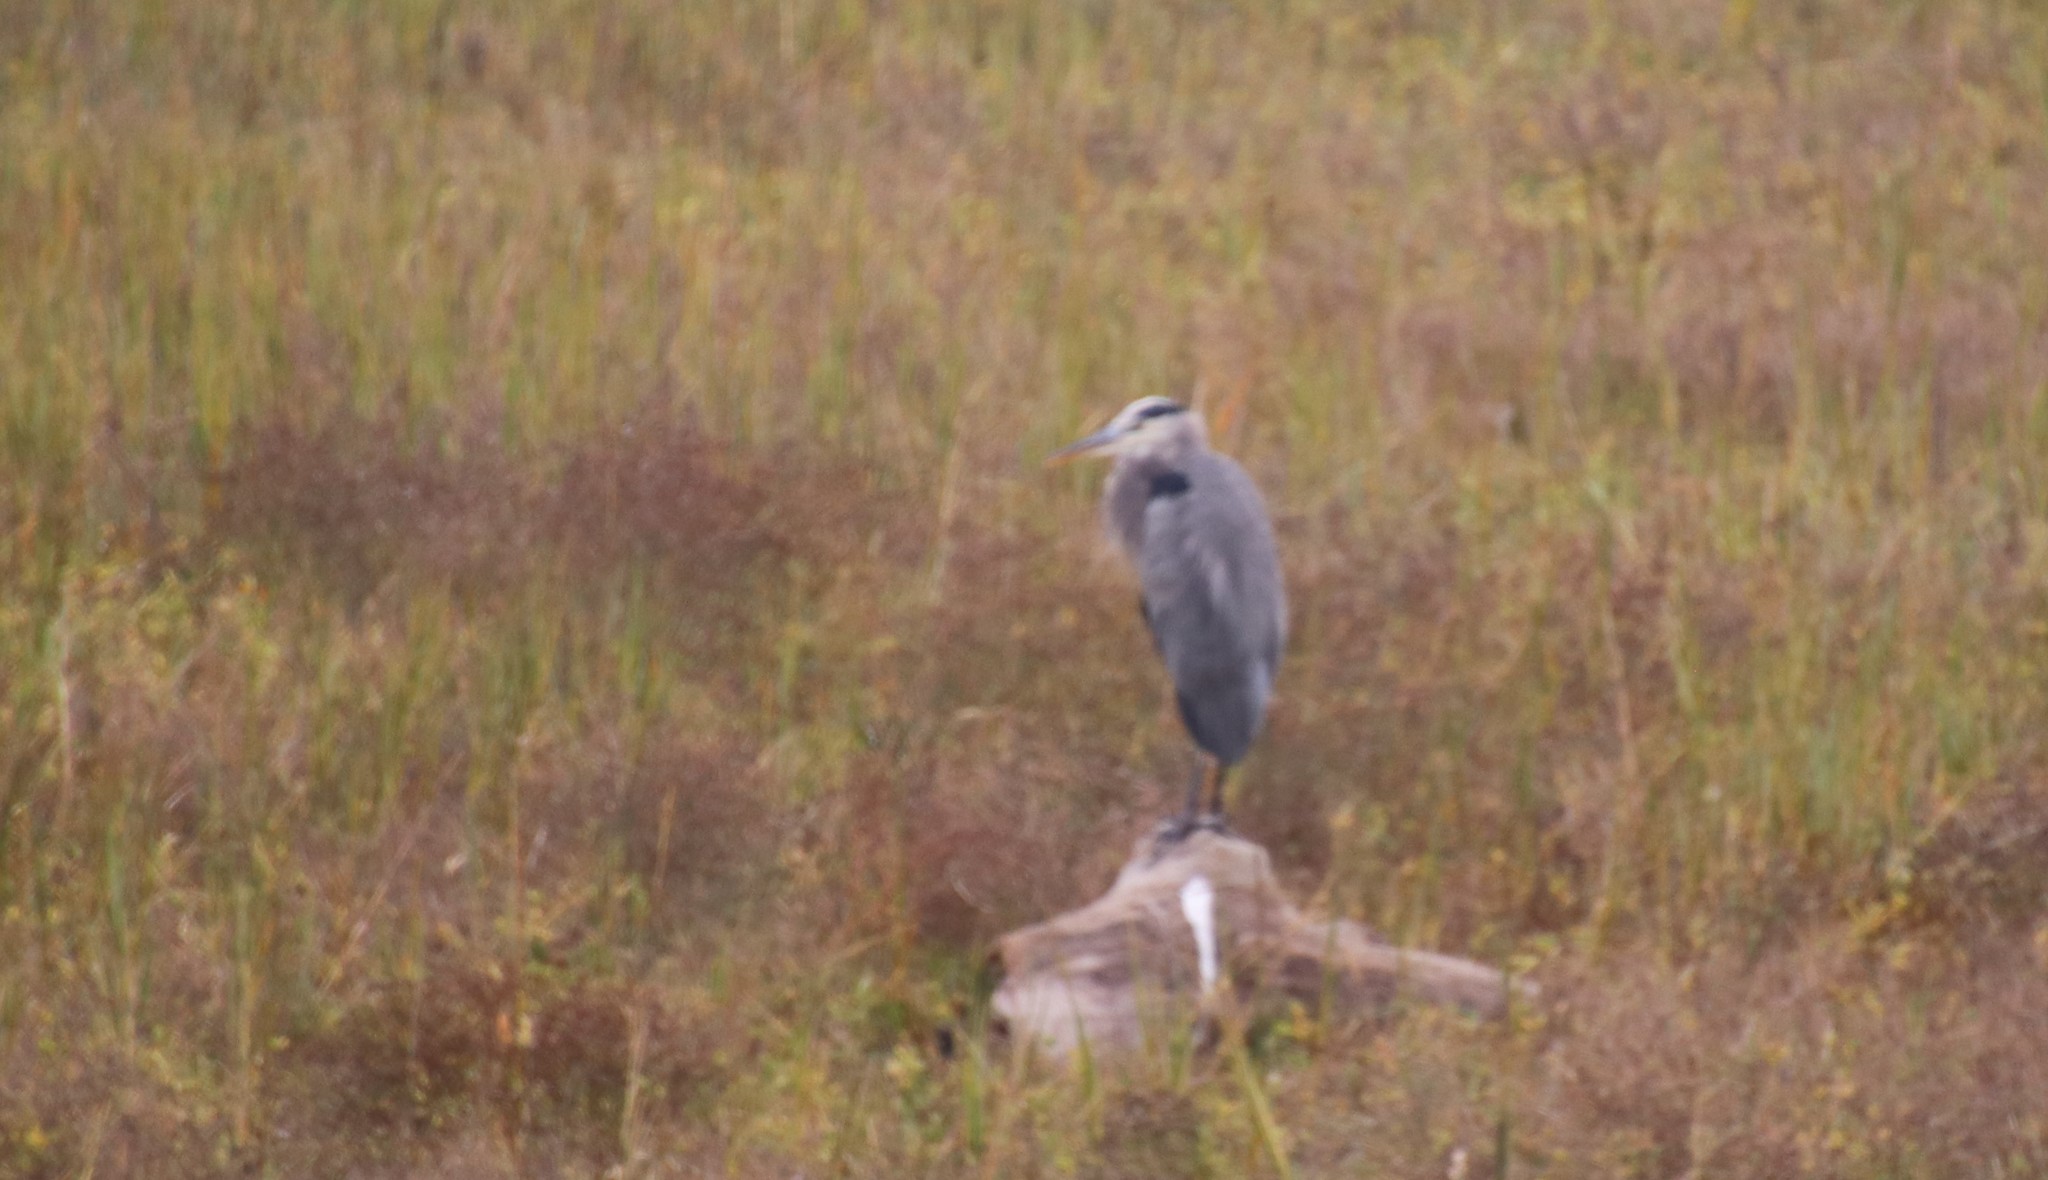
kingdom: Animalia
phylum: Chordata
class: Aves
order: Pelecaniformes
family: Ardeidae
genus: Ardea
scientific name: Ardea herodias
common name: Great blue heron
